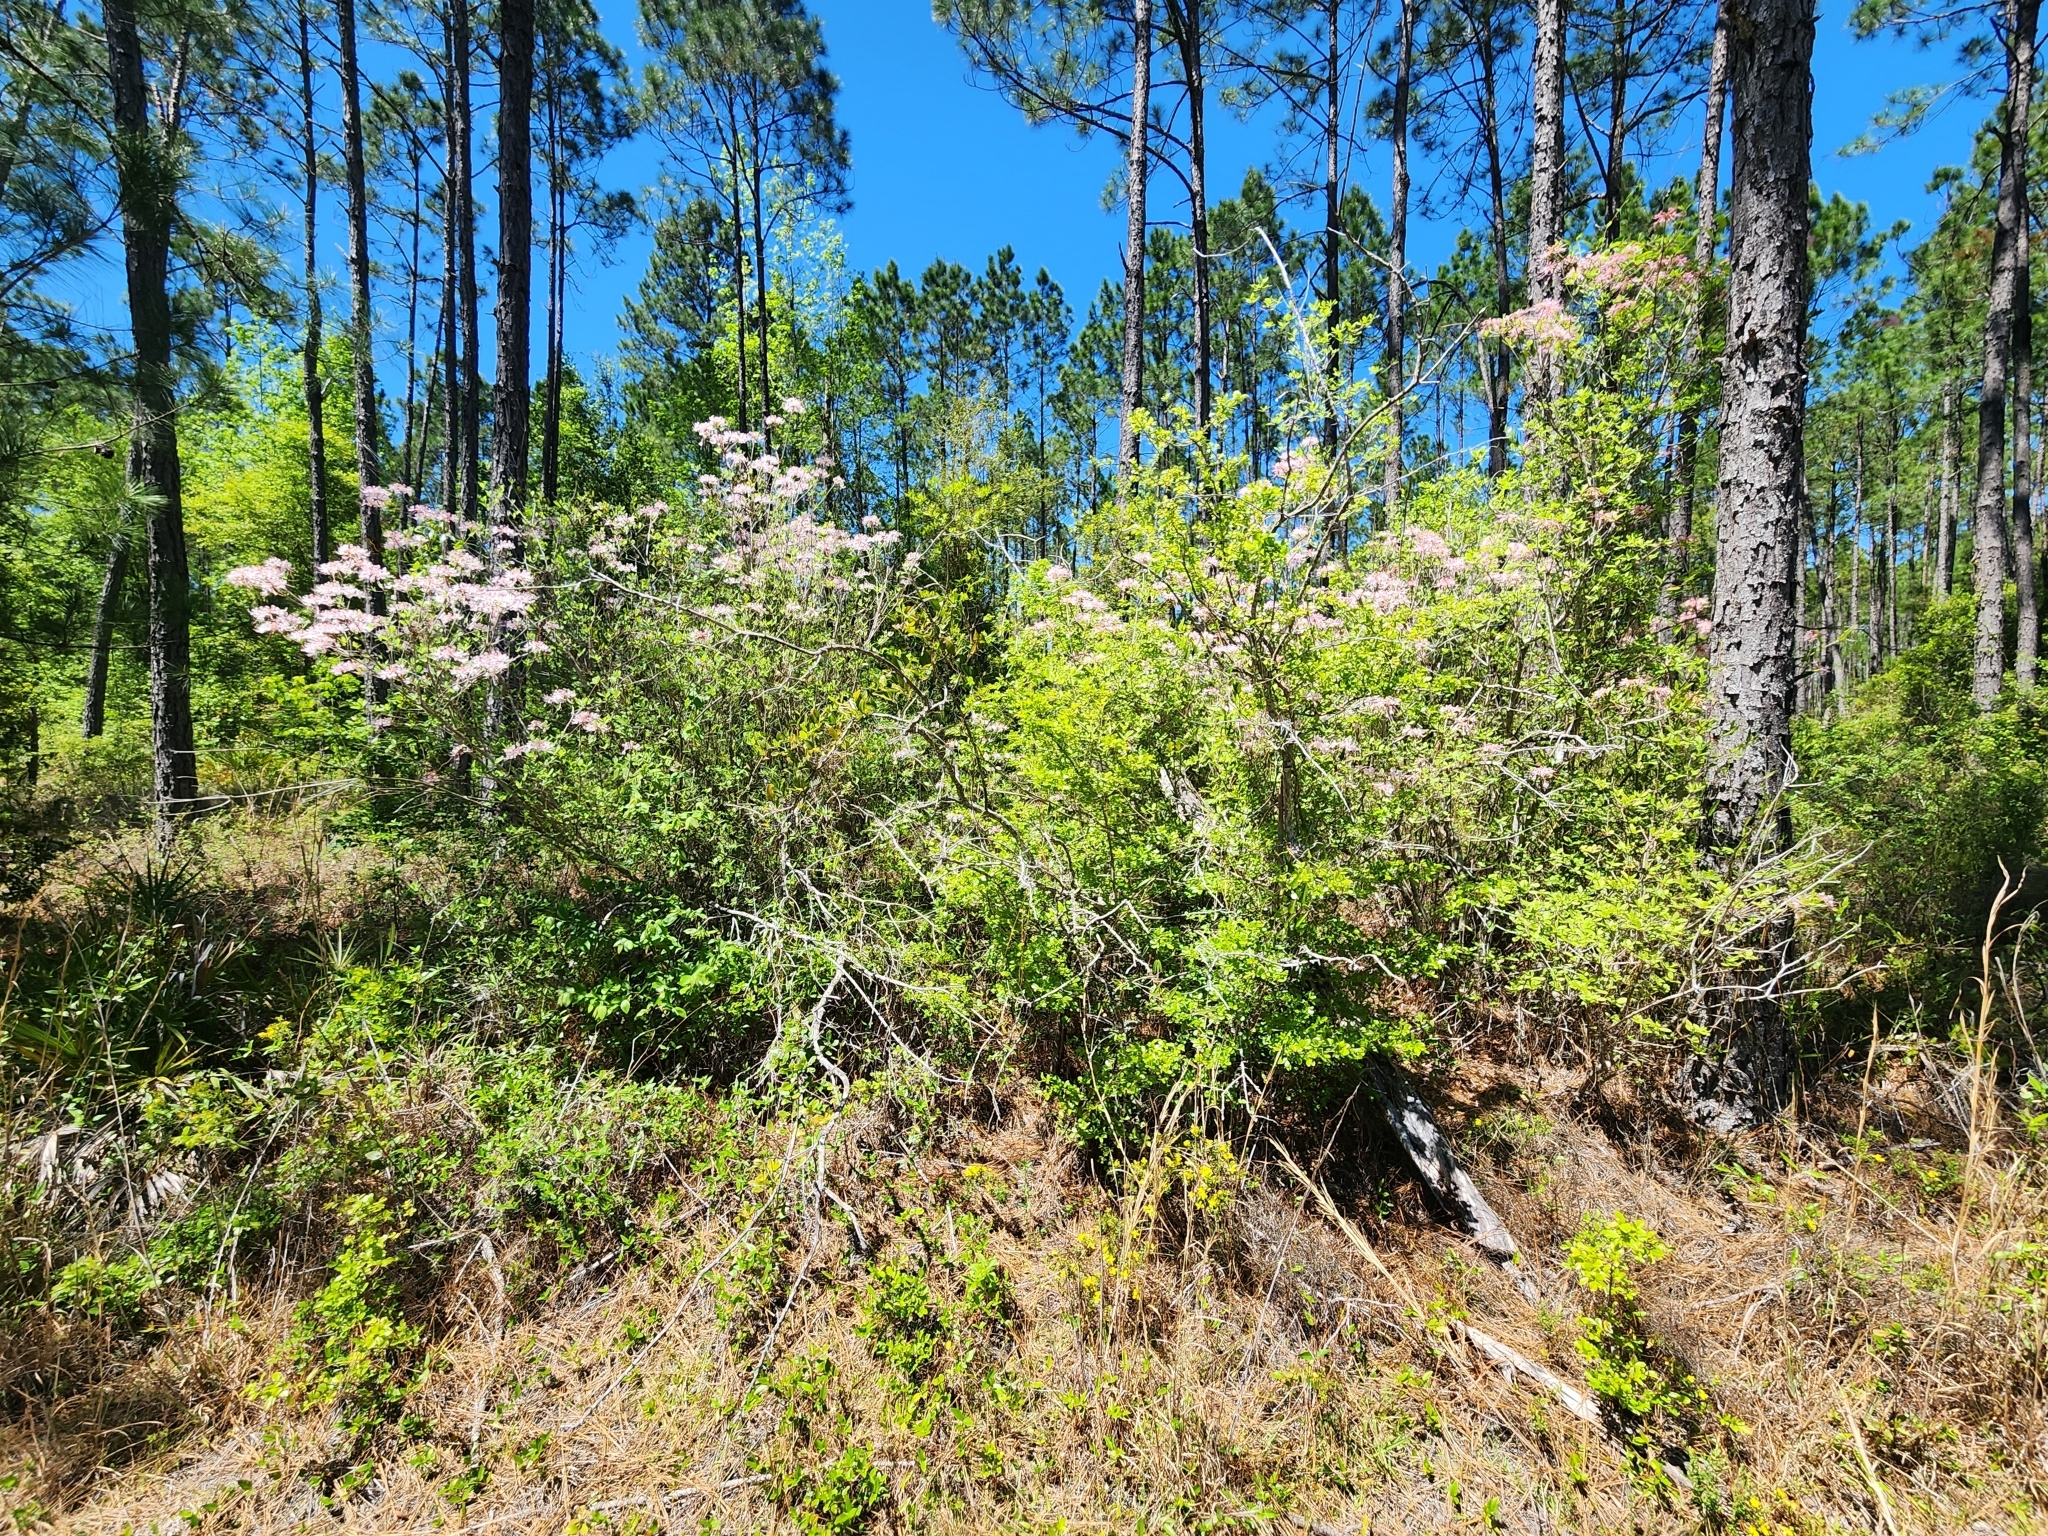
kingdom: Plantae
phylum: Tracheophyta
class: Magnoliopsida
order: Ericales
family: Ericaceae
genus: Rhododendron
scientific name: Rhododendron canescens
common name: Mountain azalea
